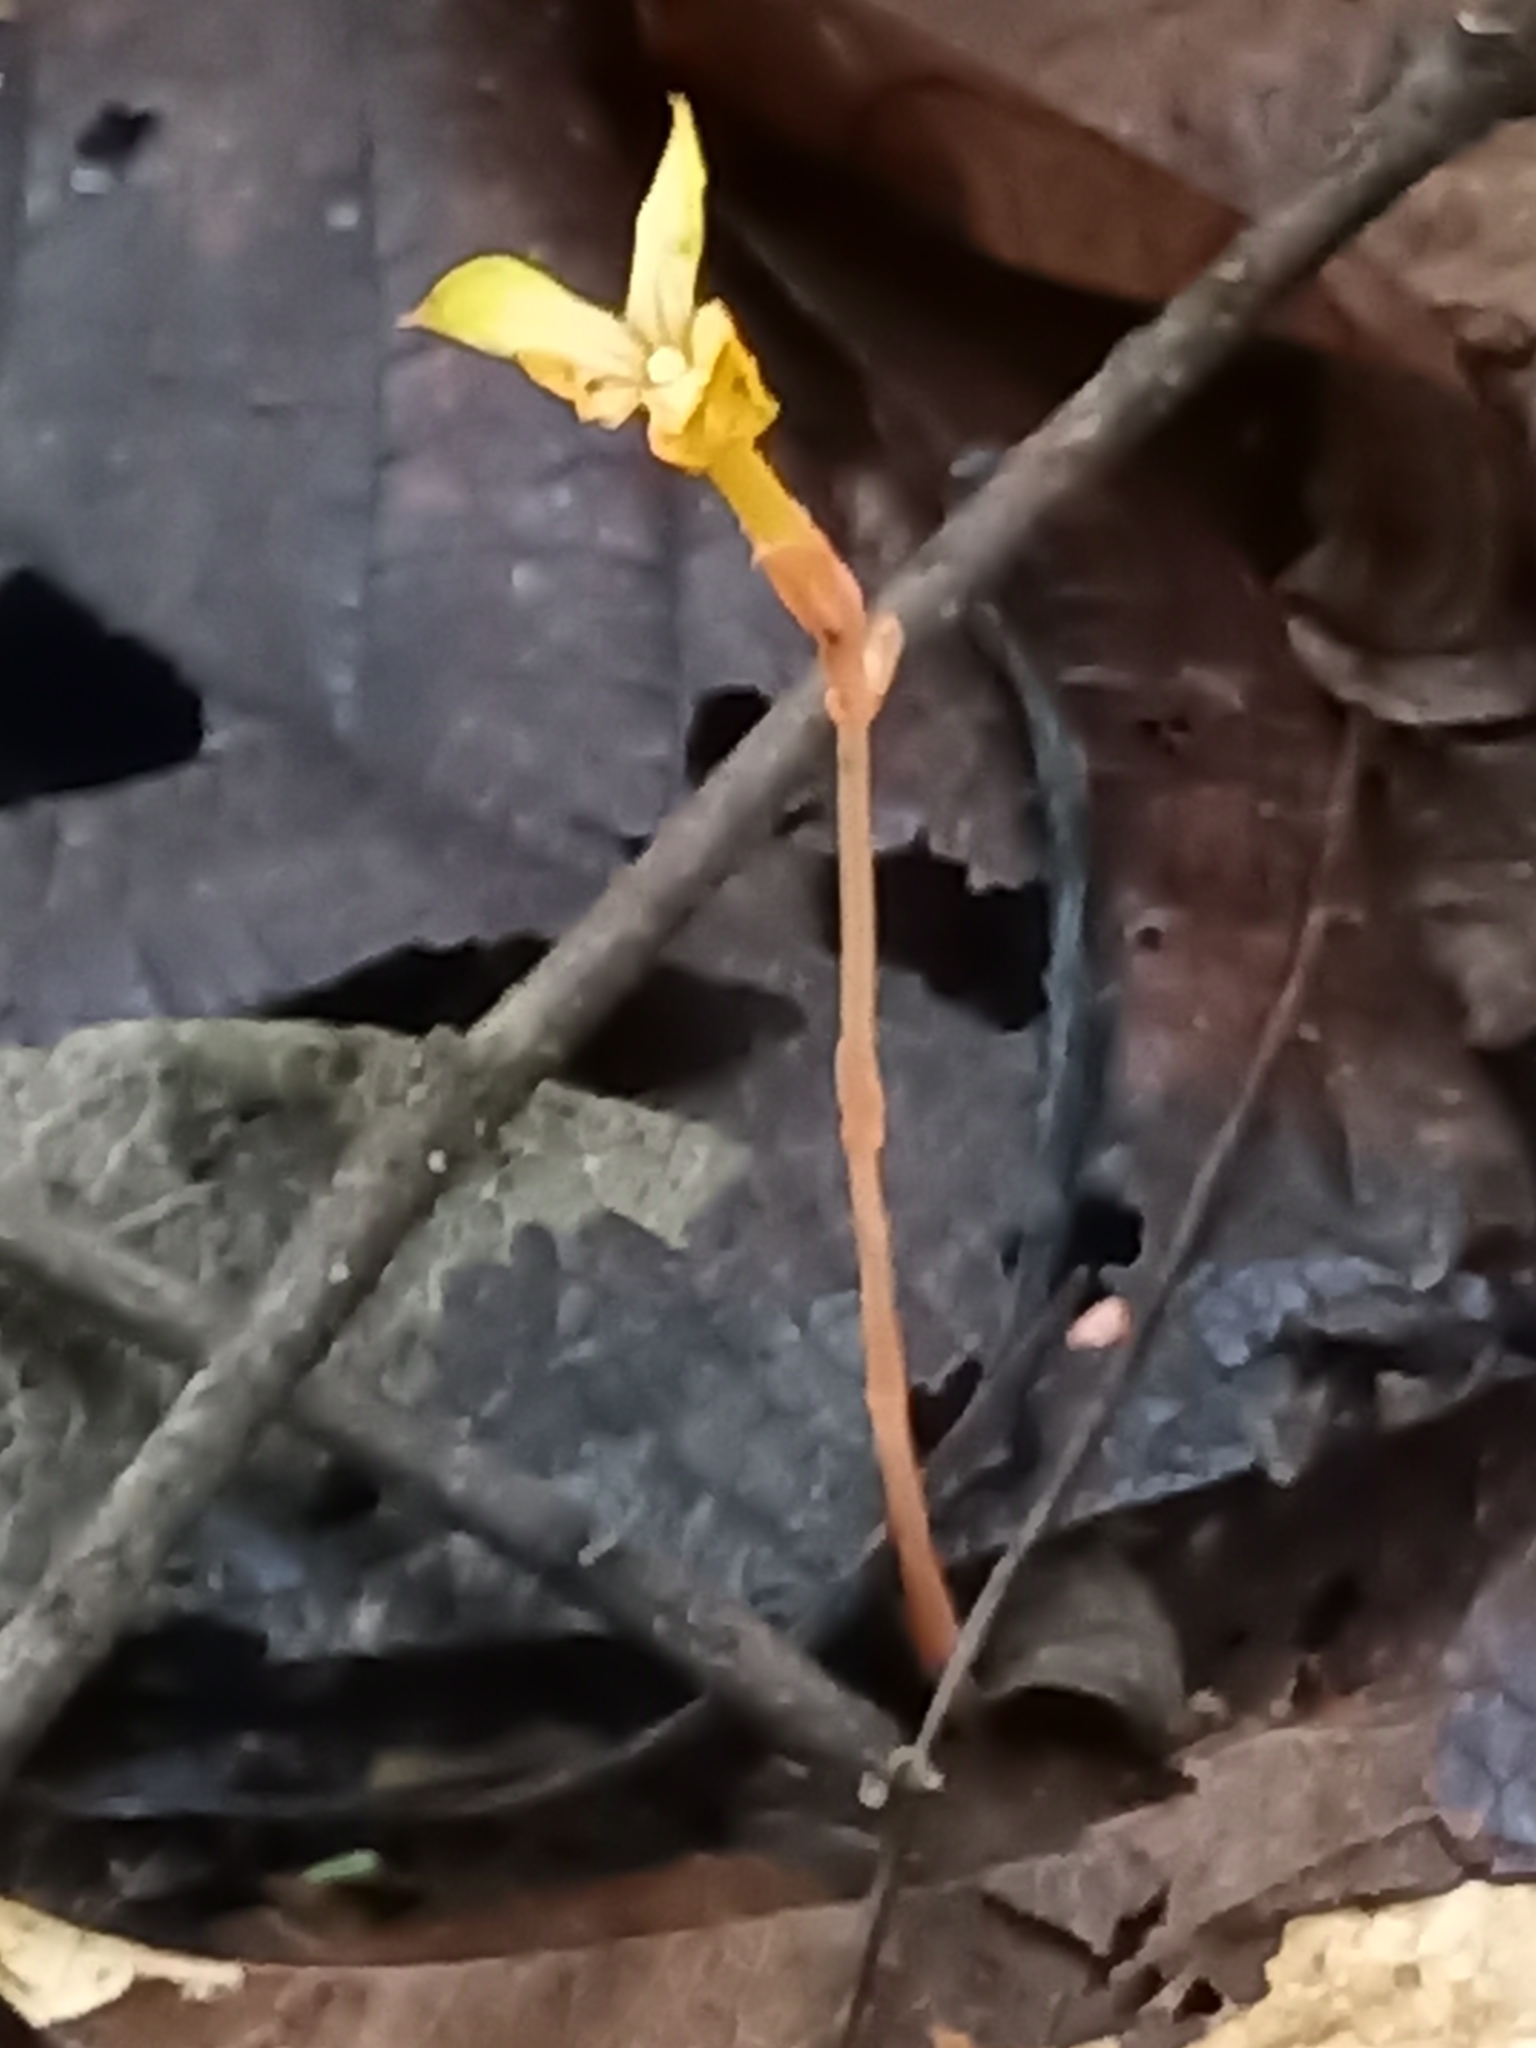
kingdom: Plantae
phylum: Tracheophyta
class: Magnoliopsida
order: Gentianales
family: Gentianaceae
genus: Voyria
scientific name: Voyria aurantiaca
